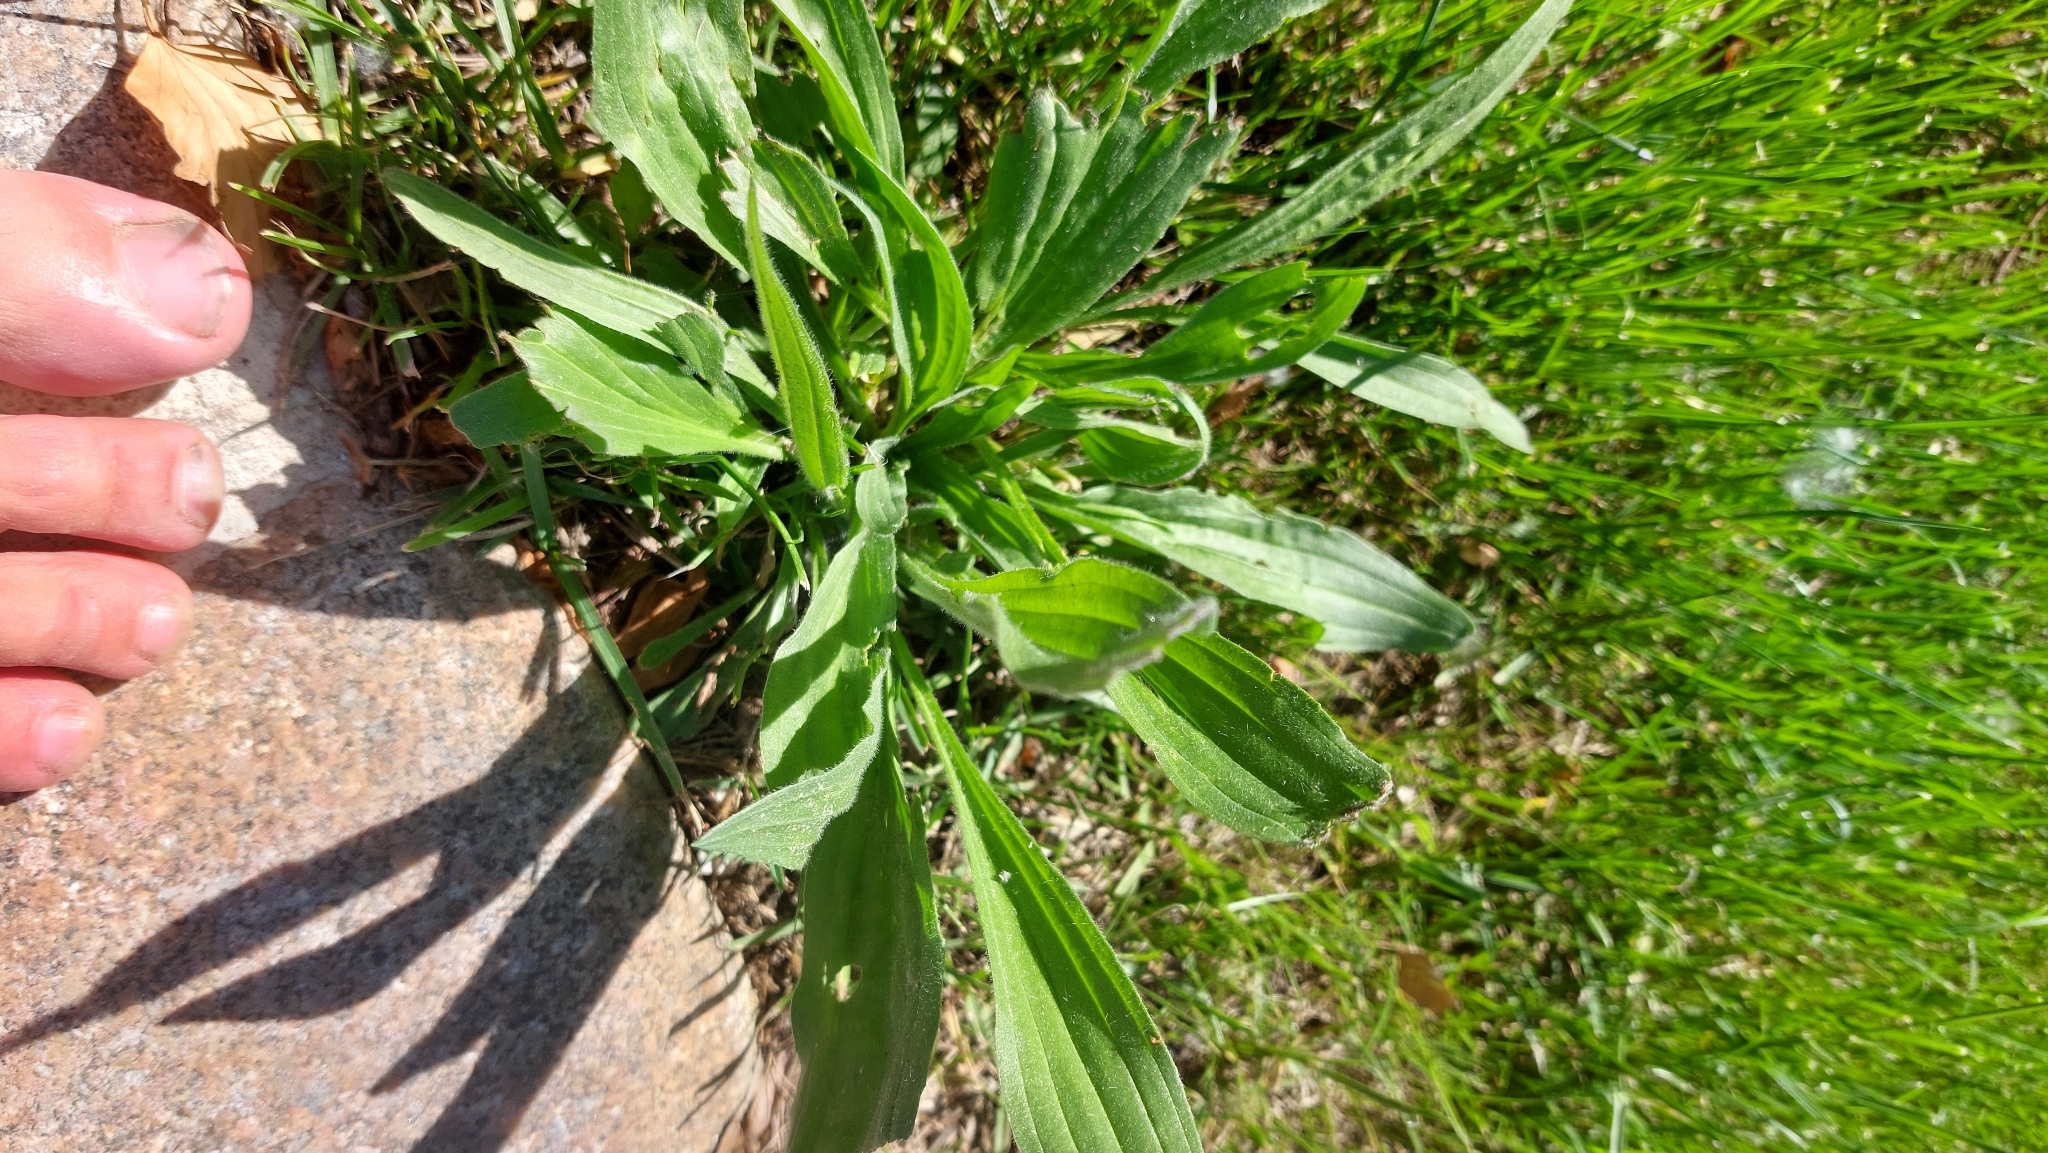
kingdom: Plantae
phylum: Tracheophyta
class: Magnoliopsida
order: Lamiales
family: Plantaginaceae
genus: Plantago
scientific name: Plantago lanceolata
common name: Ribwort plantain
